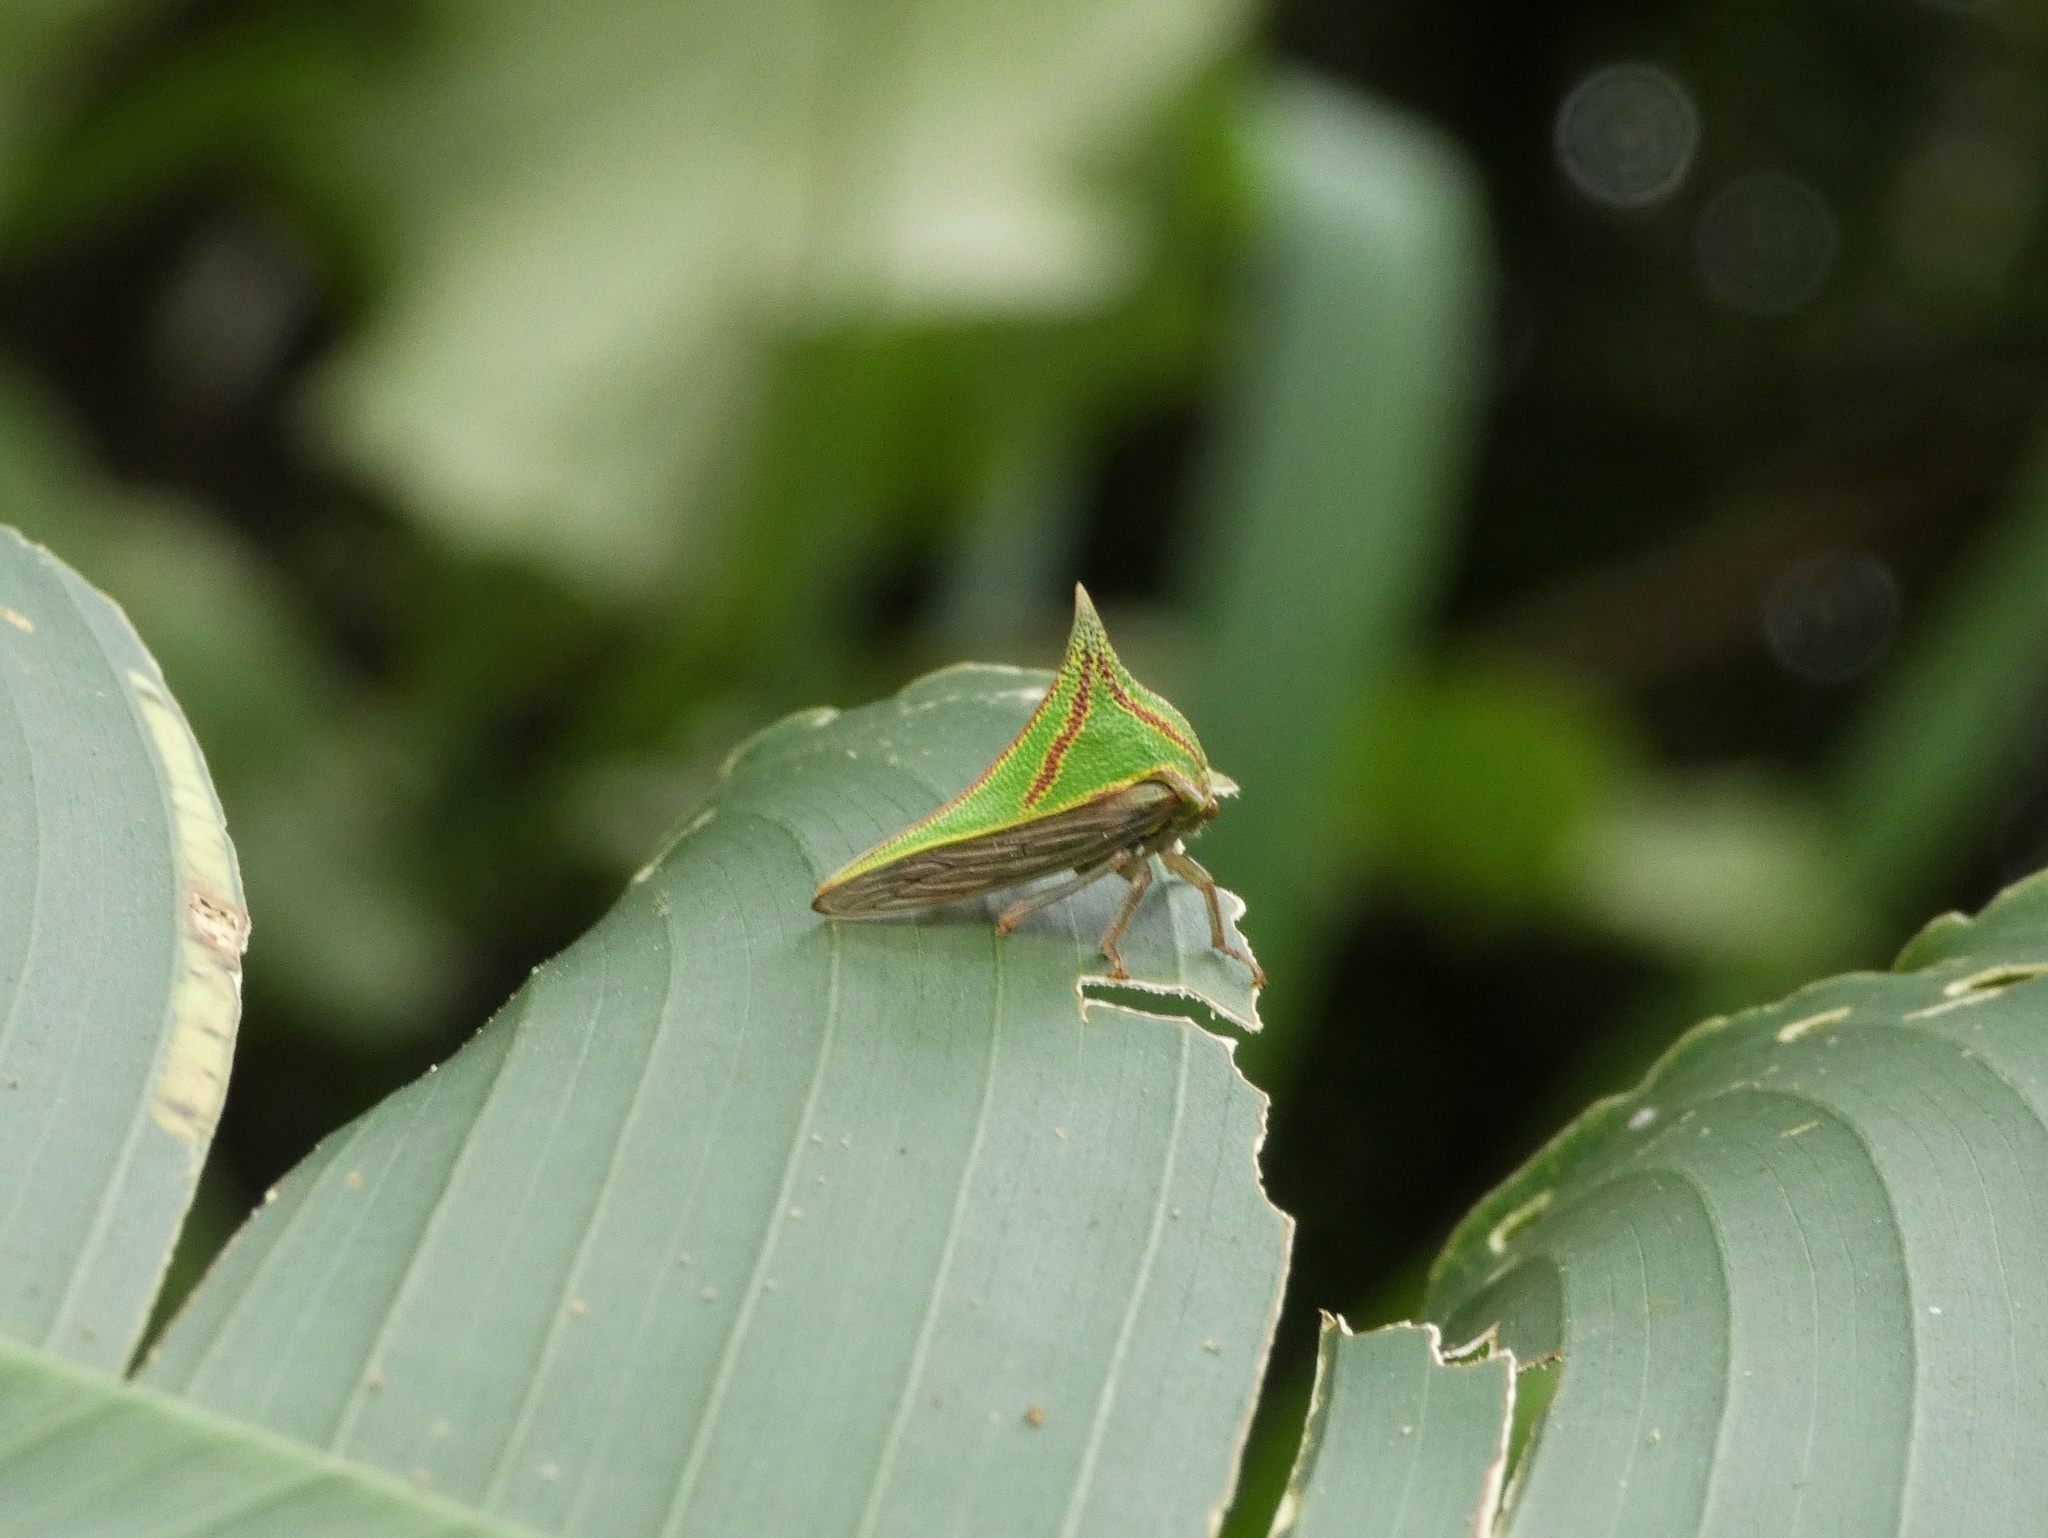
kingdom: Animalia
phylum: Arthropoda
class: Insecta
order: Hemiptera
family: Membracidae
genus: Umbonia
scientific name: Umbonia spinosa
